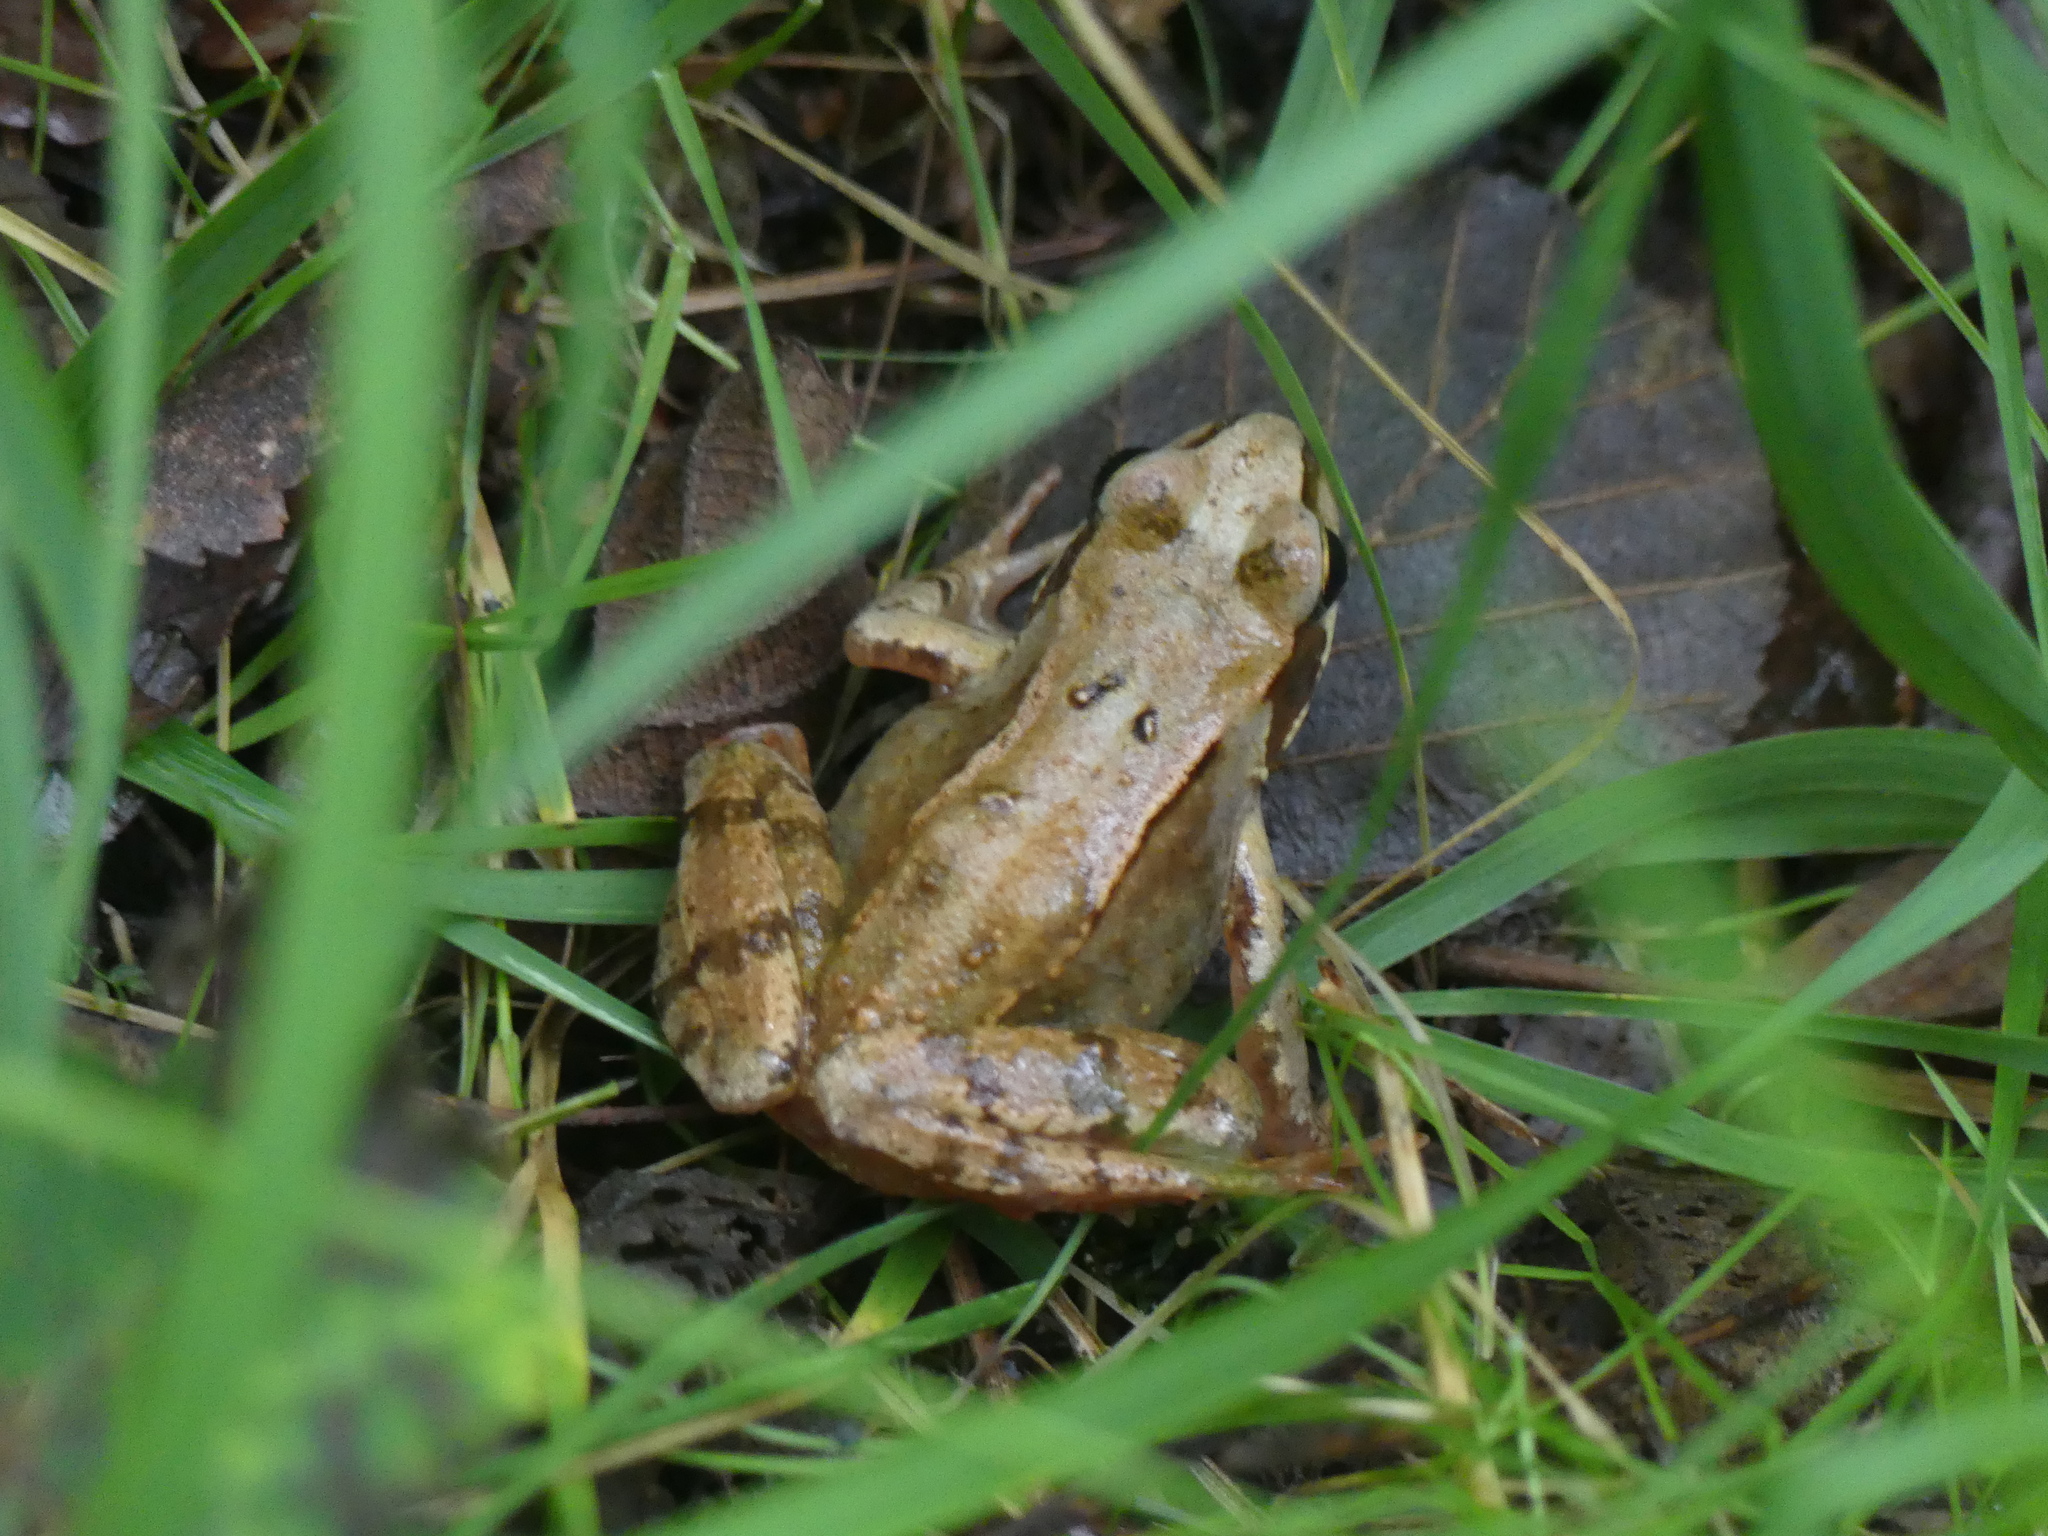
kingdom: Animalia
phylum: Chordata
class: Amphibia
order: Anura
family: Ranidae
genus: Rana
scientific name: Rana temporaria
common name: Common frog
